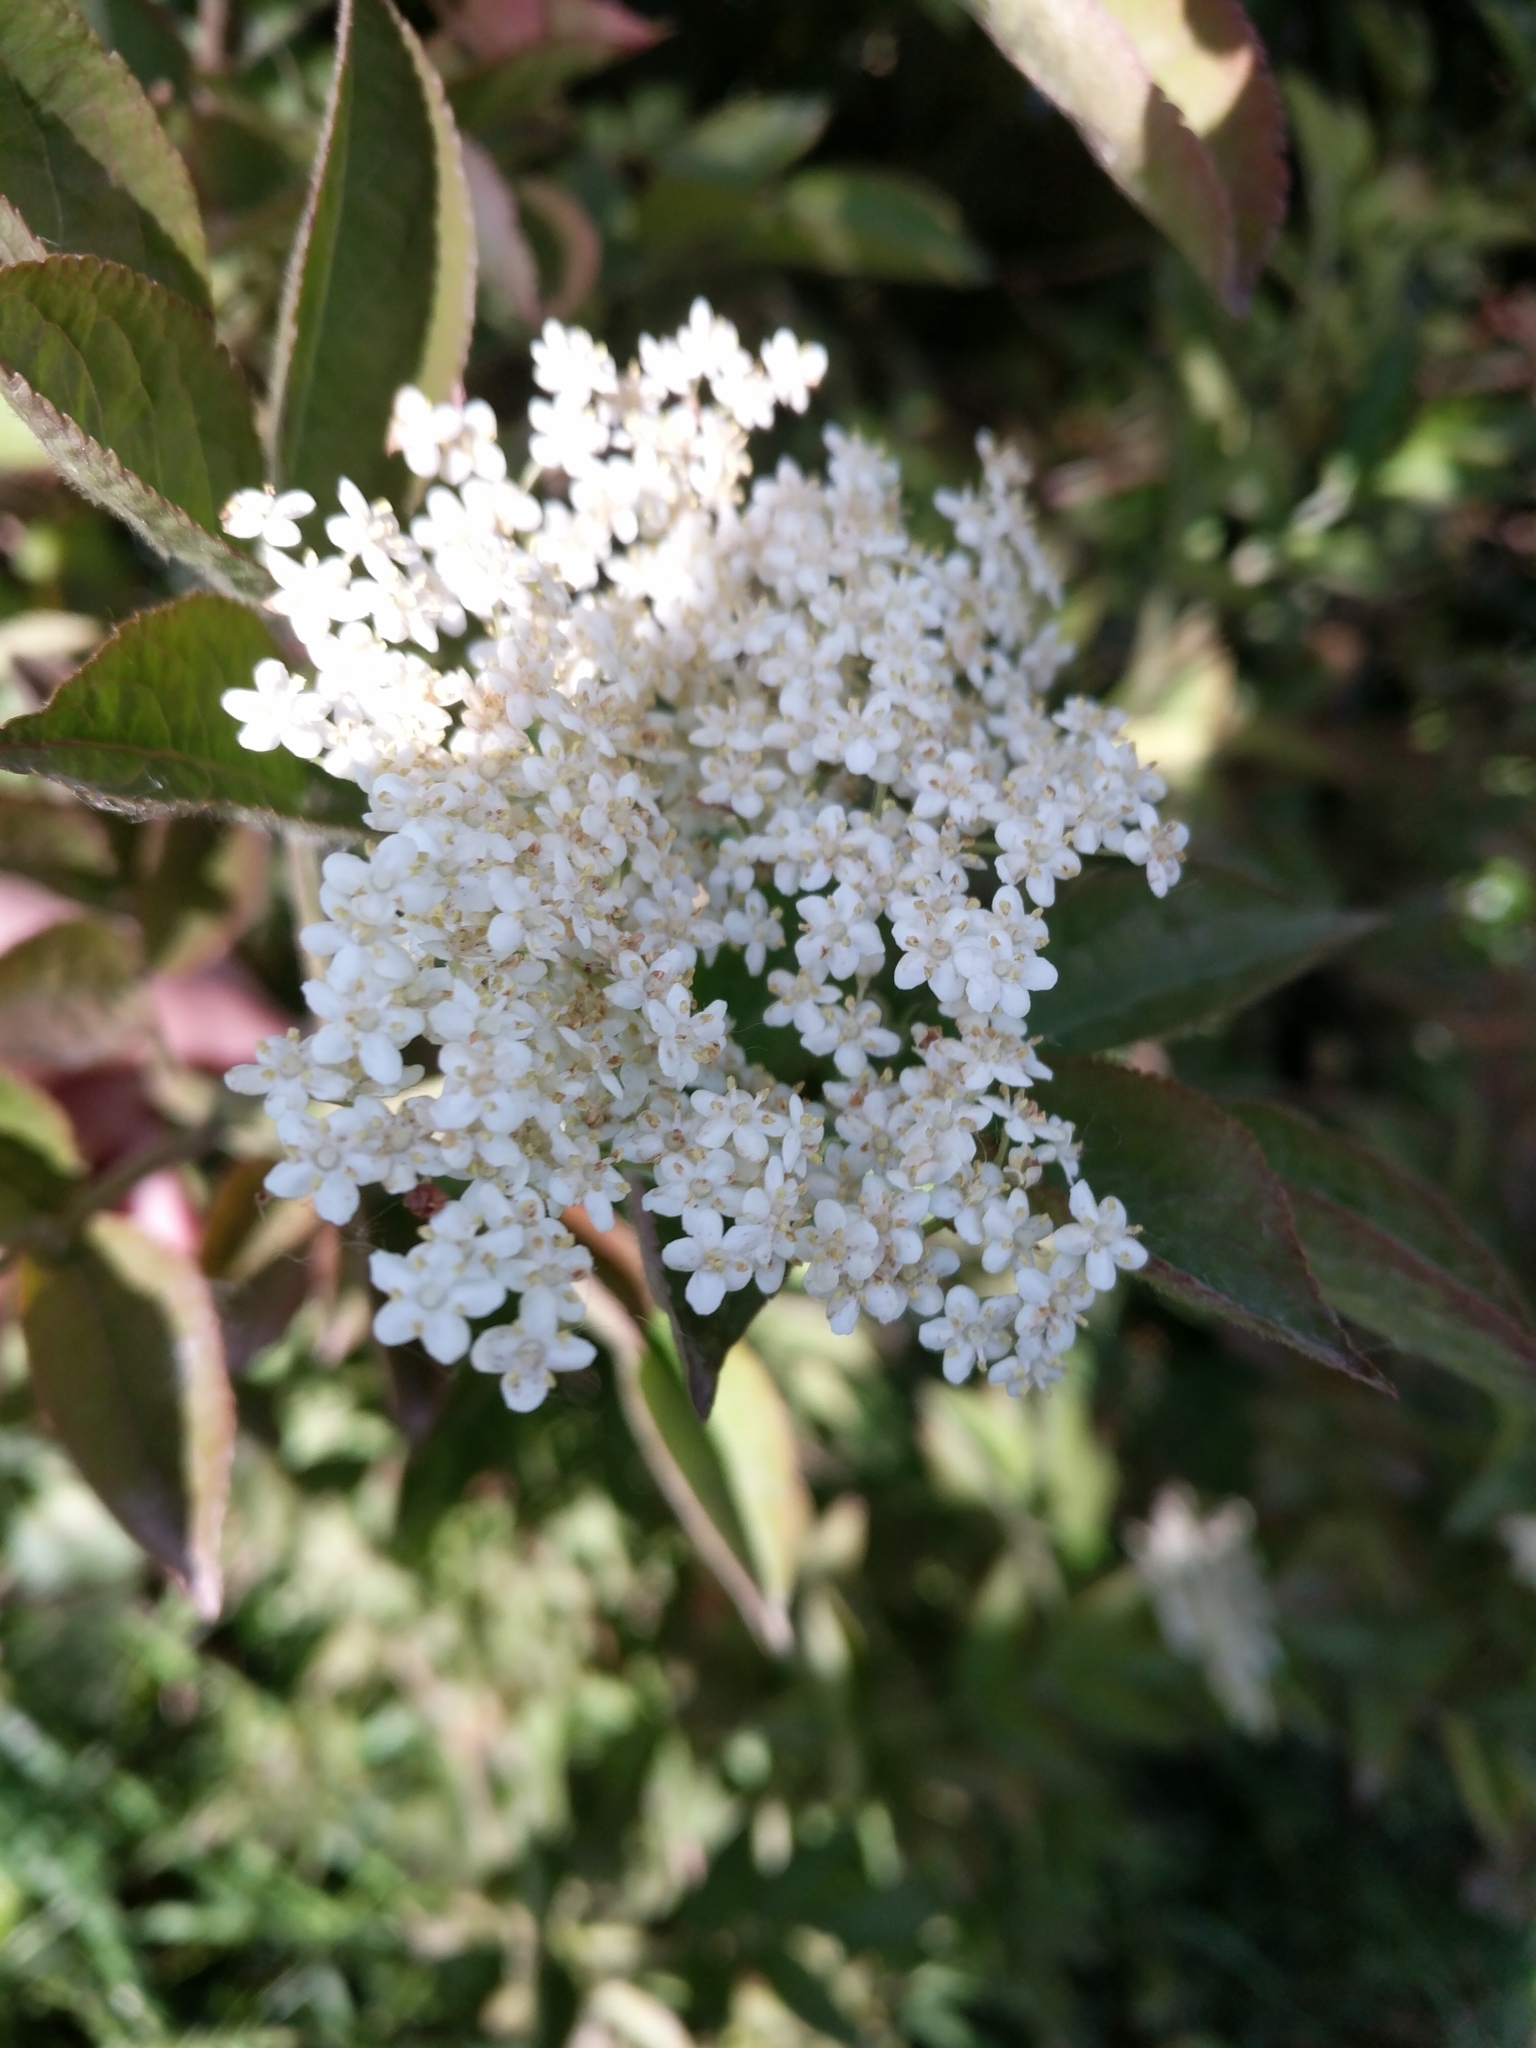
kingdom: Plantae
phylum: Tracheophyta
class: Magnoliopsida
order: Dipsacales
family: Viburnaceae
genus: Sambucus
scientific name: Sambucus nigra
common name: Elder
